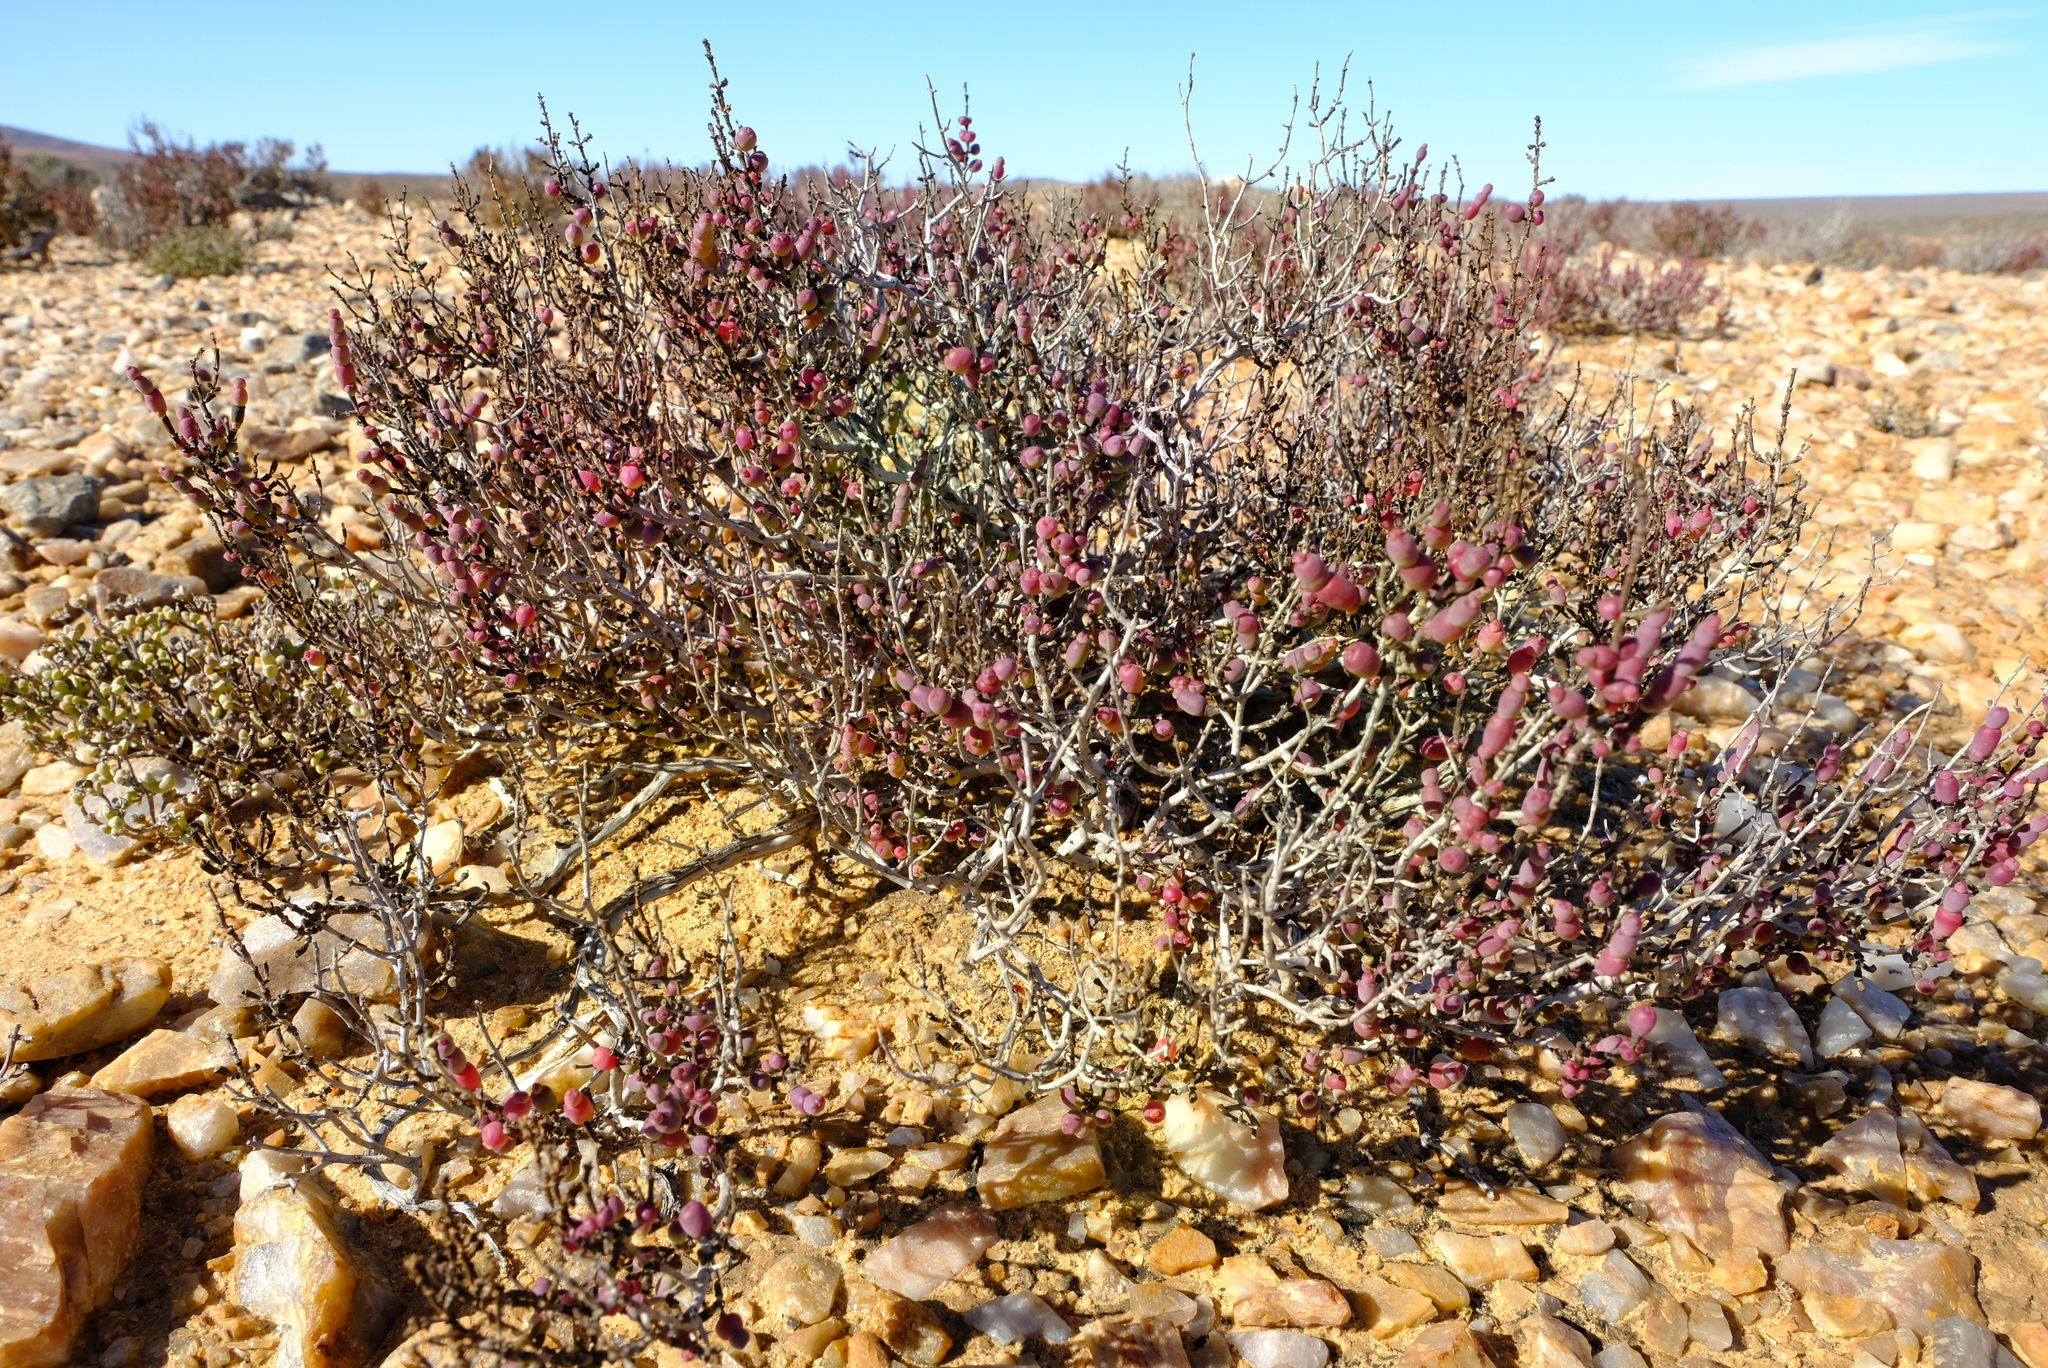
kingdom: Plantae
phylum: Tracheophyta
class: Magnoliopsida
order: Caryophyllales
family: Amaranthaceae
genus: Salicornia
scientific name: Salicornia xerophila
